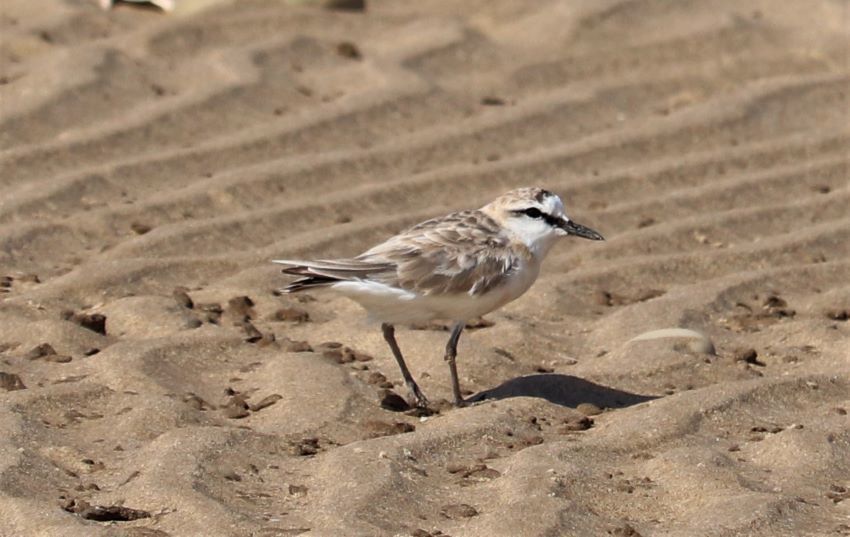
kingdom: Animalia
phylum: Chordata
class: Aves
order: Charadriiformes
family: Charadriidae
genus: Anarhynchus
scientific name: Anarhynchus
